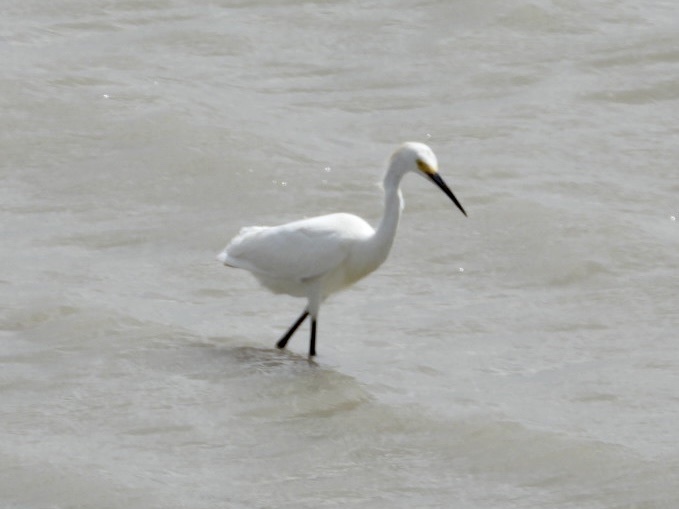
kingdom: Animalia
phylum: Chordata
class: Aves
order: Pelecaniformes
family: Ardeidae
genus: Egretta
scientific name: Egretta thula
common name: Snowy egret
